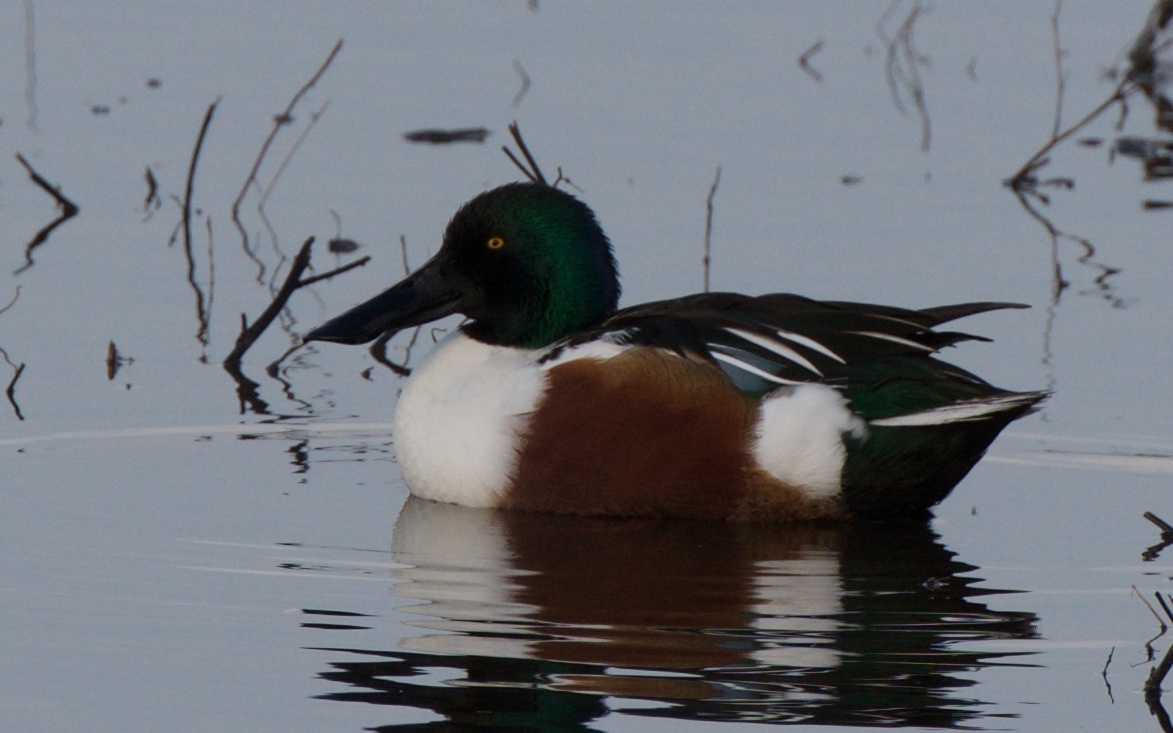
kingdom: Animalia
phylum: Chordata
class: Aves
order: Anseriformes
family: Anatidae
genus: Spatula
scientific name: Spatula clypeata
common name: Northern shoveler
